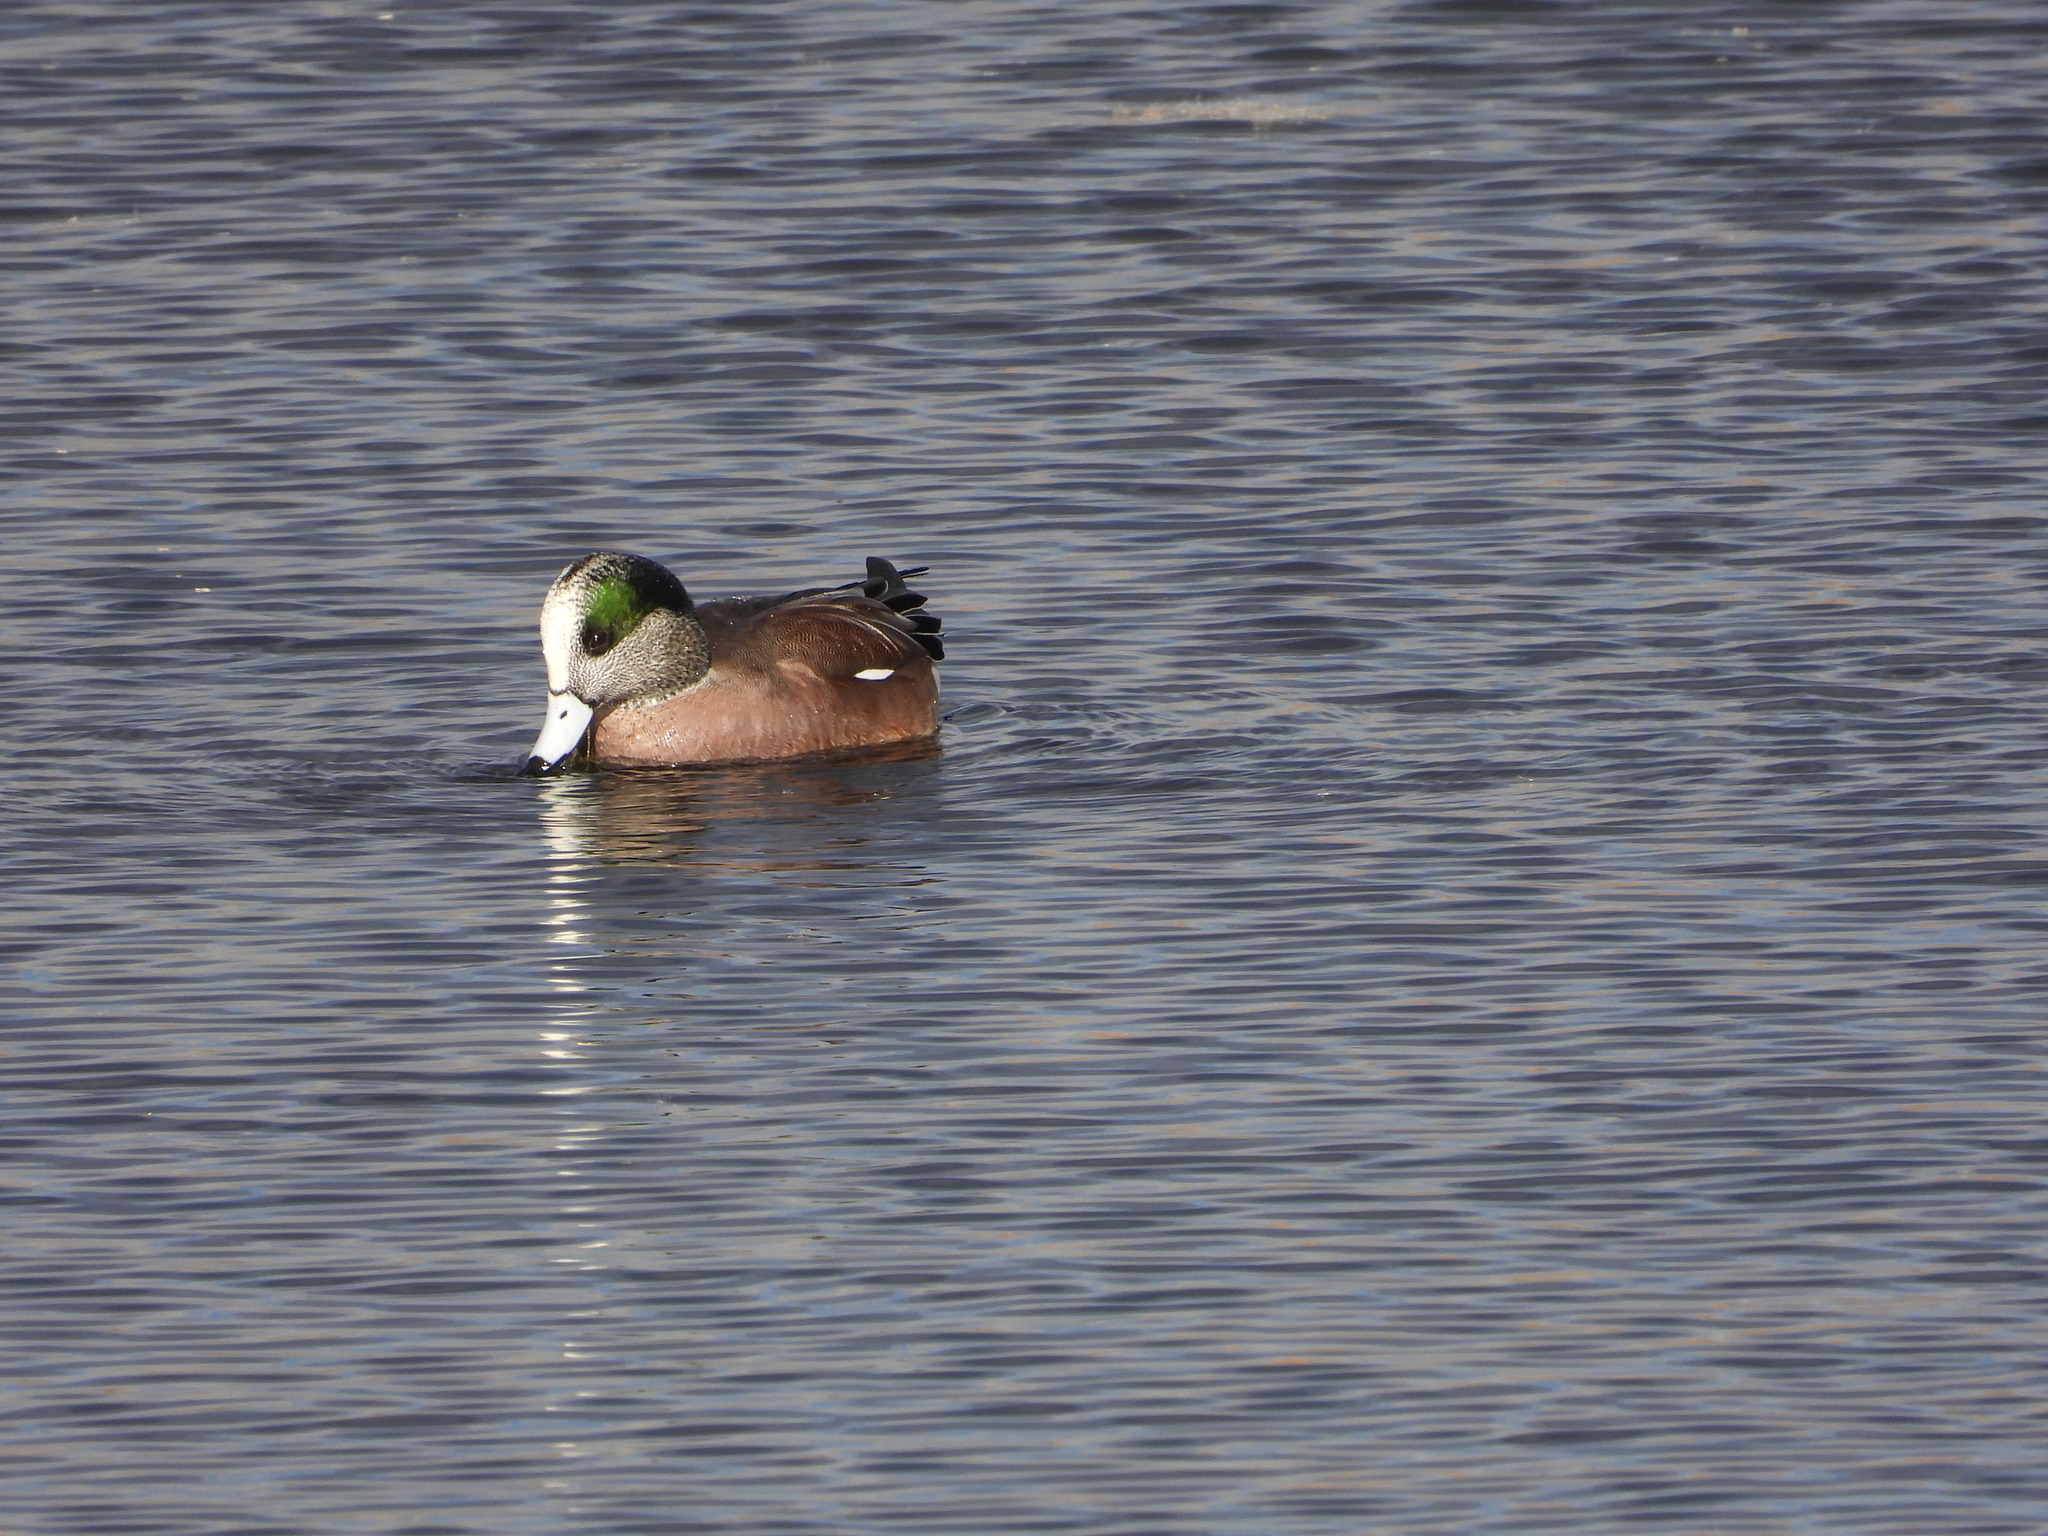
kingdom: Animalia
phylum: Chordata
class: Aves
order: Anseriformes
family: Anatidae
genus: Mareca
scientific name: Mareca americana
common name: American wigeon
